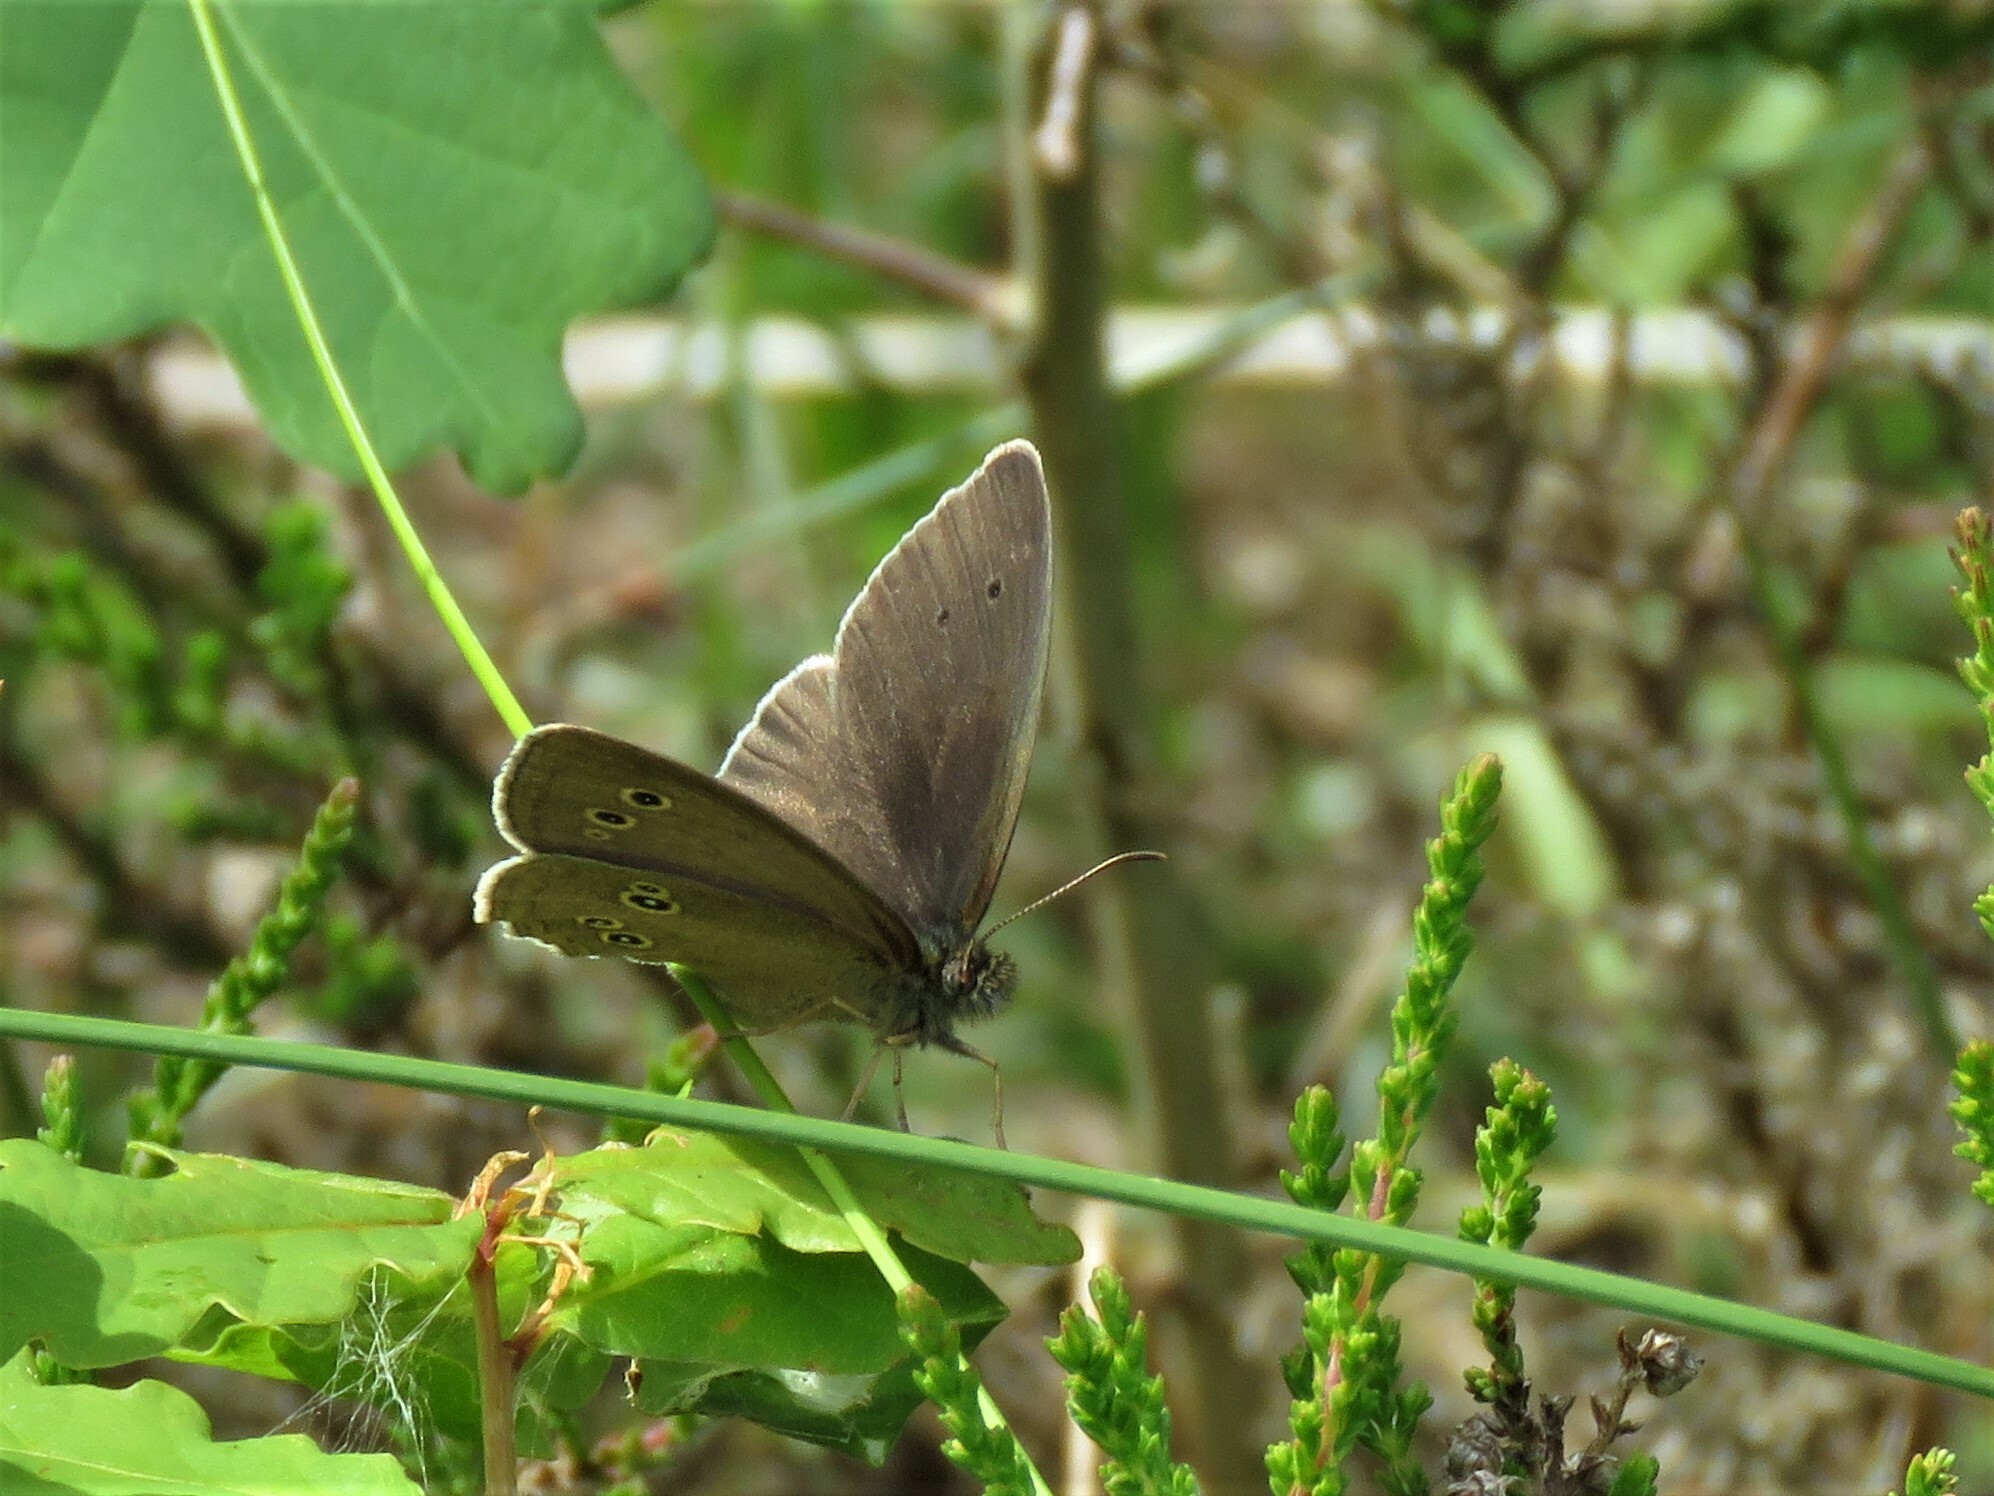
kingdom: Animalia
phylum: Arthropoda
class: Insecta
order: Lepidoptera
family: Nymphalidae
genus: Aphantopus
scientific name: Aphantopus hyperantus
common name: Ringlet
